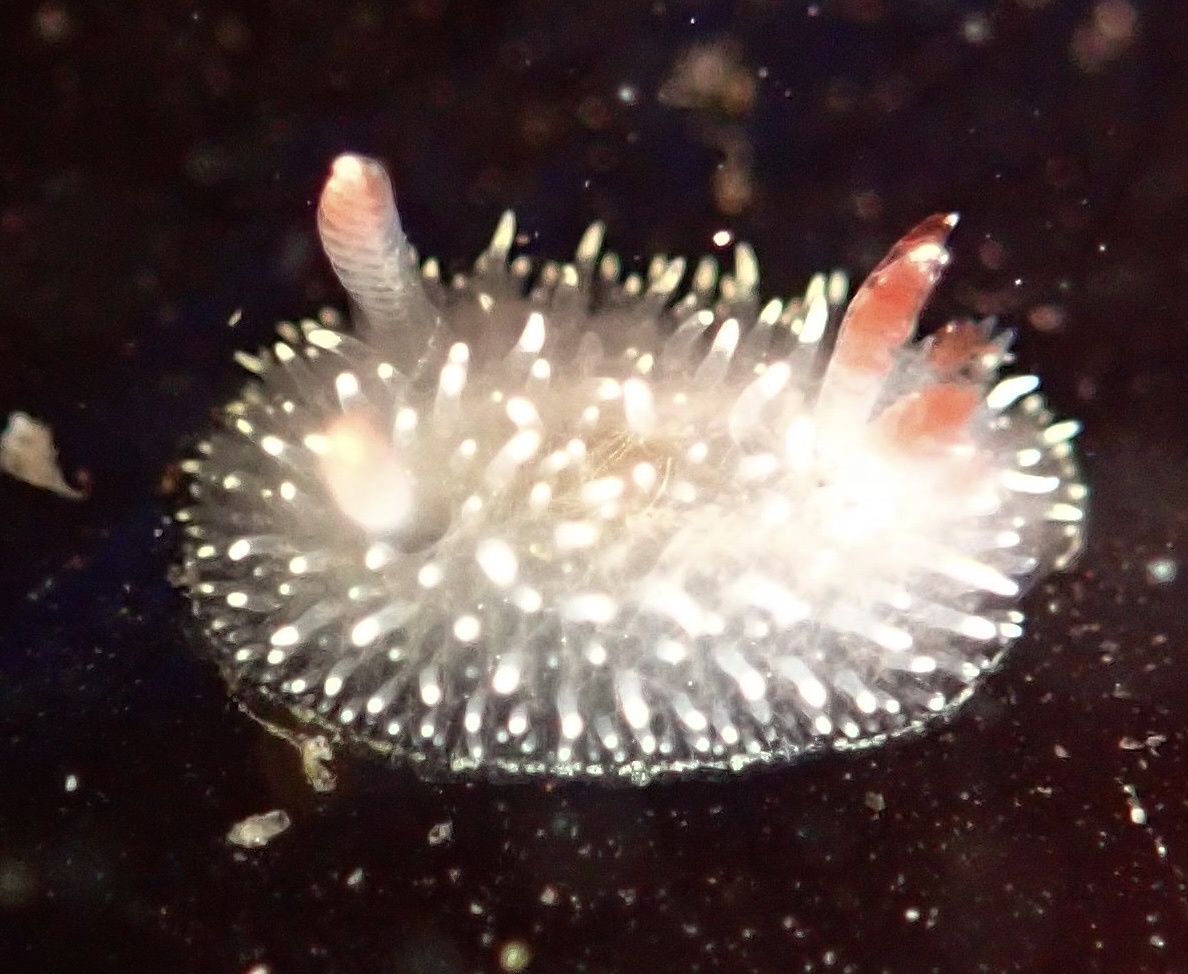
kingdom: Animalia
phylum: Mollusca
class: Gastropoda
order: Nudibranchia
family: Onchidorididae
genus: Acanthodoris
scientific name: Acanthodoris nanaimoensis
